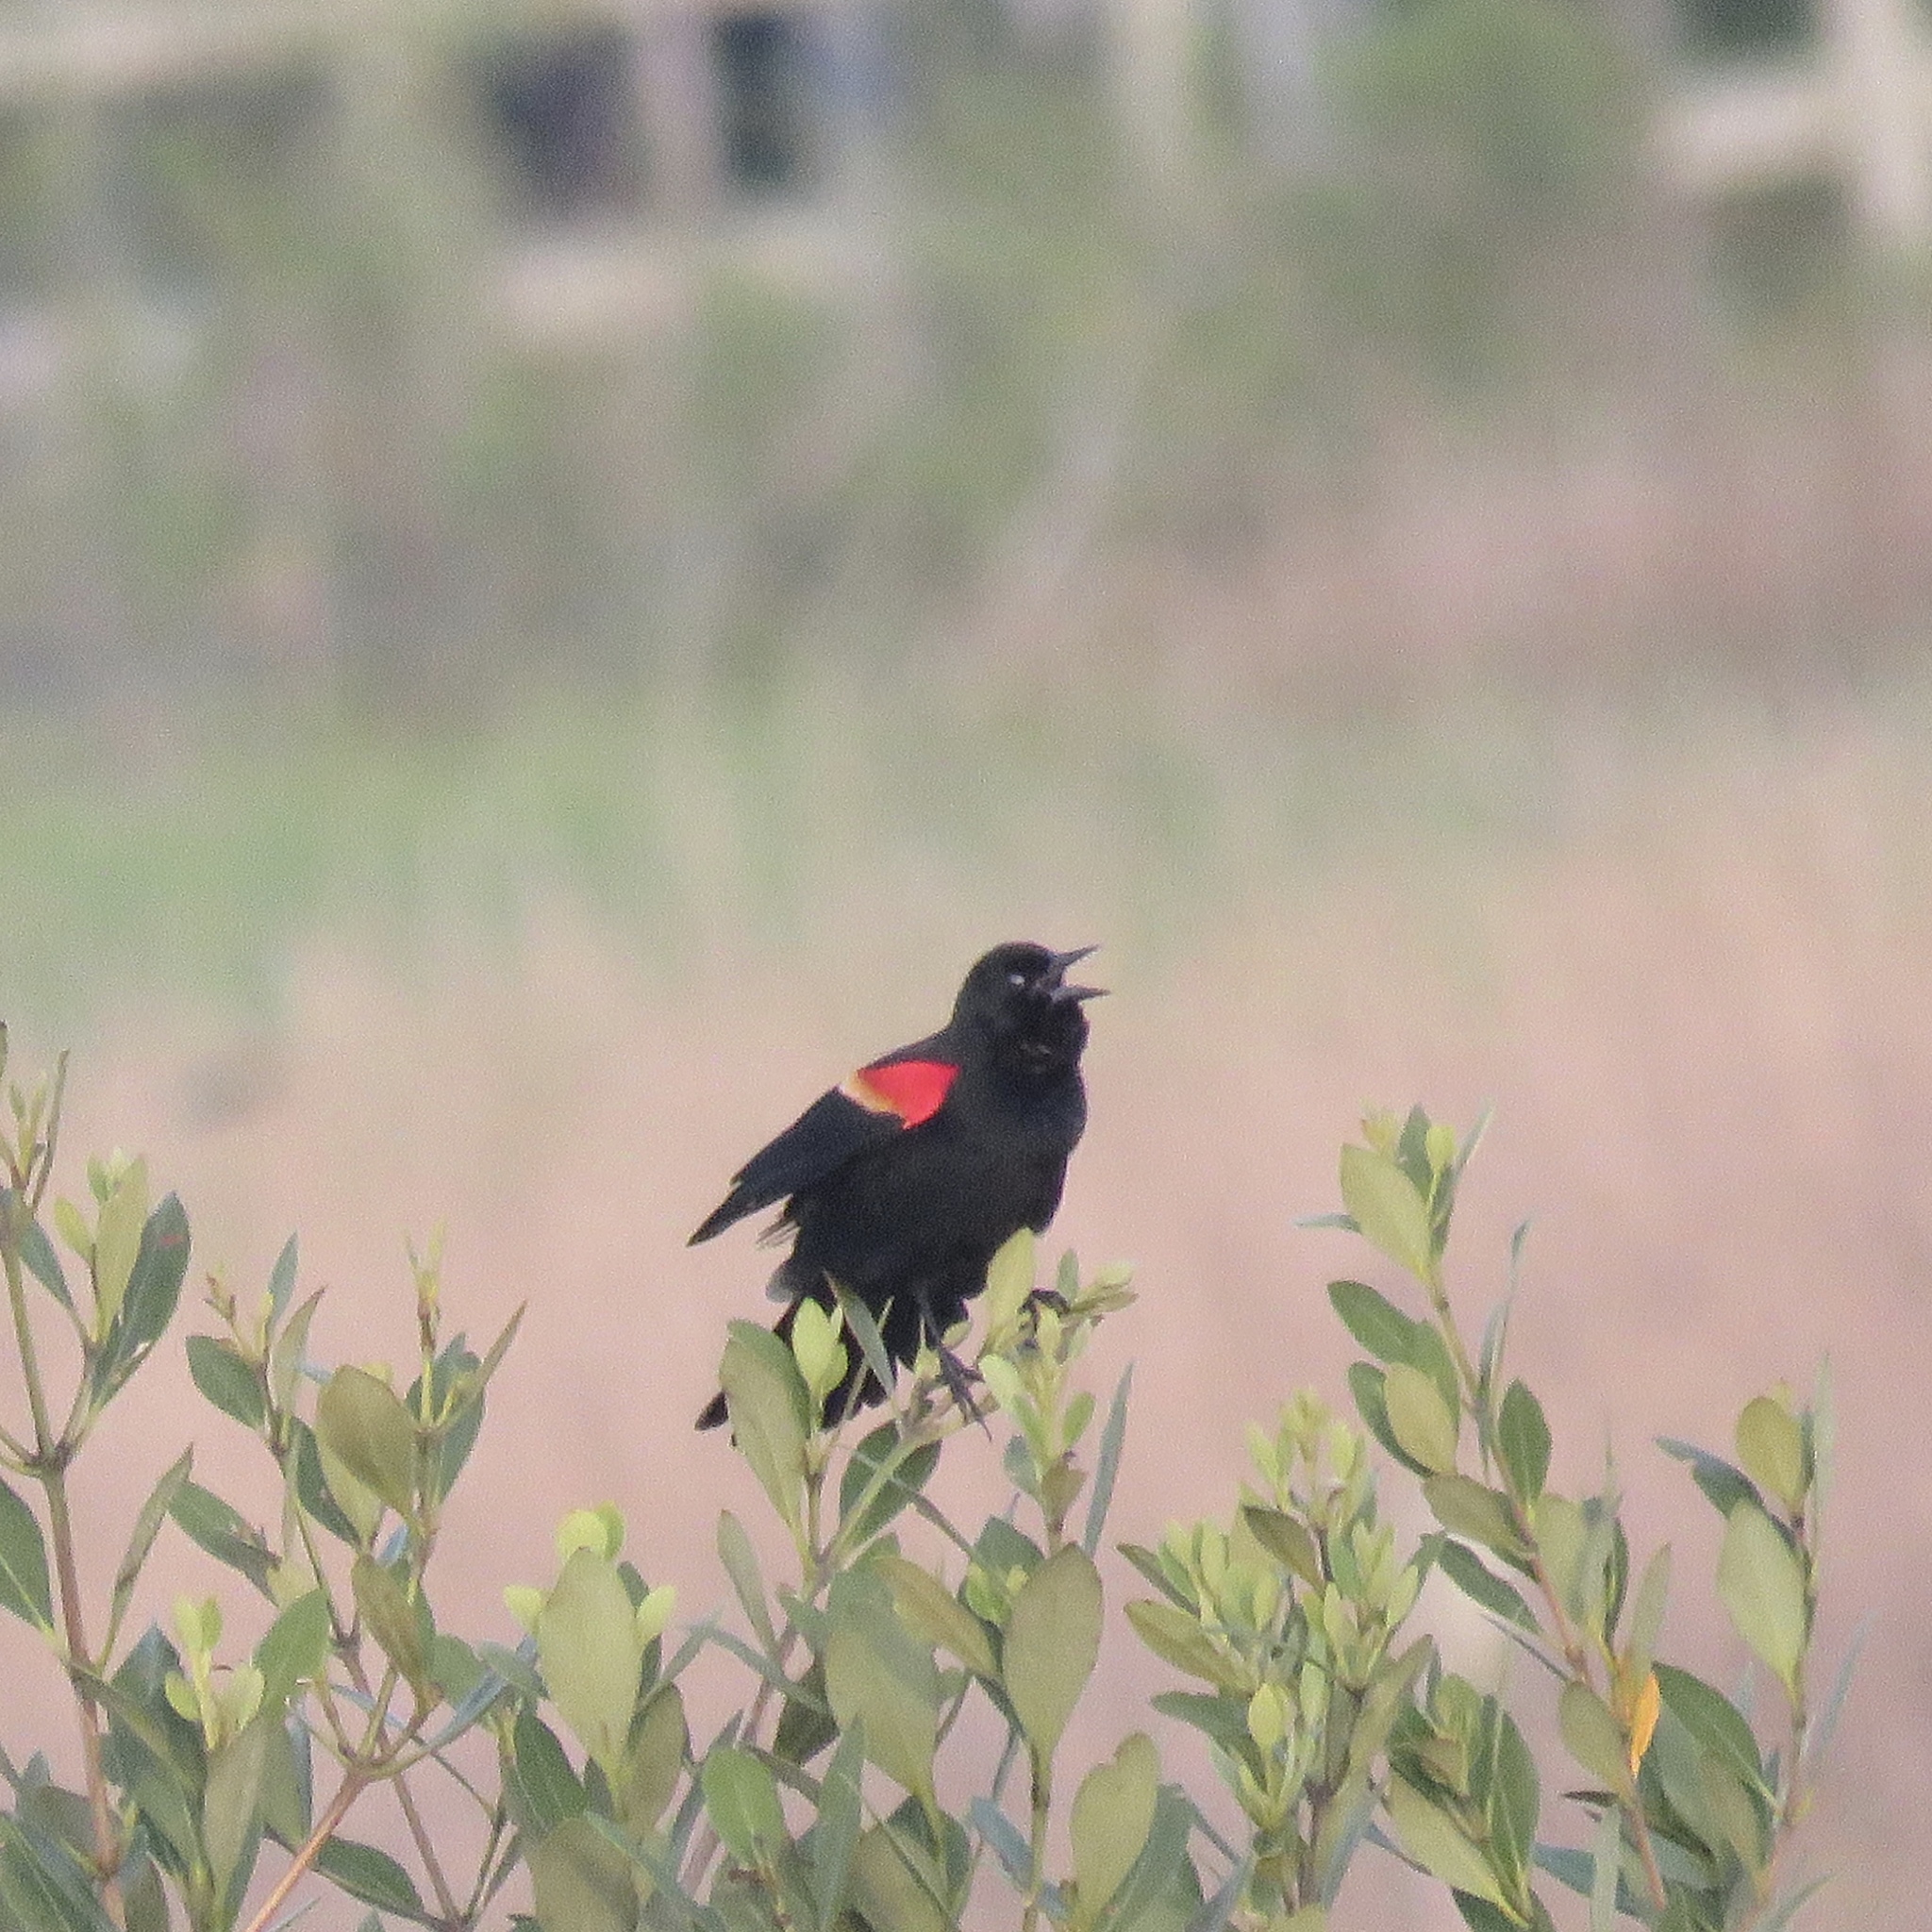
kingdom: Animalia
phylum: Chordata
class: Aves
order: Passeriformes
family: Icteridae
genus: Agelaius
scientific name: Agelaius phoeniceus
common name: Red-winged blackbird
